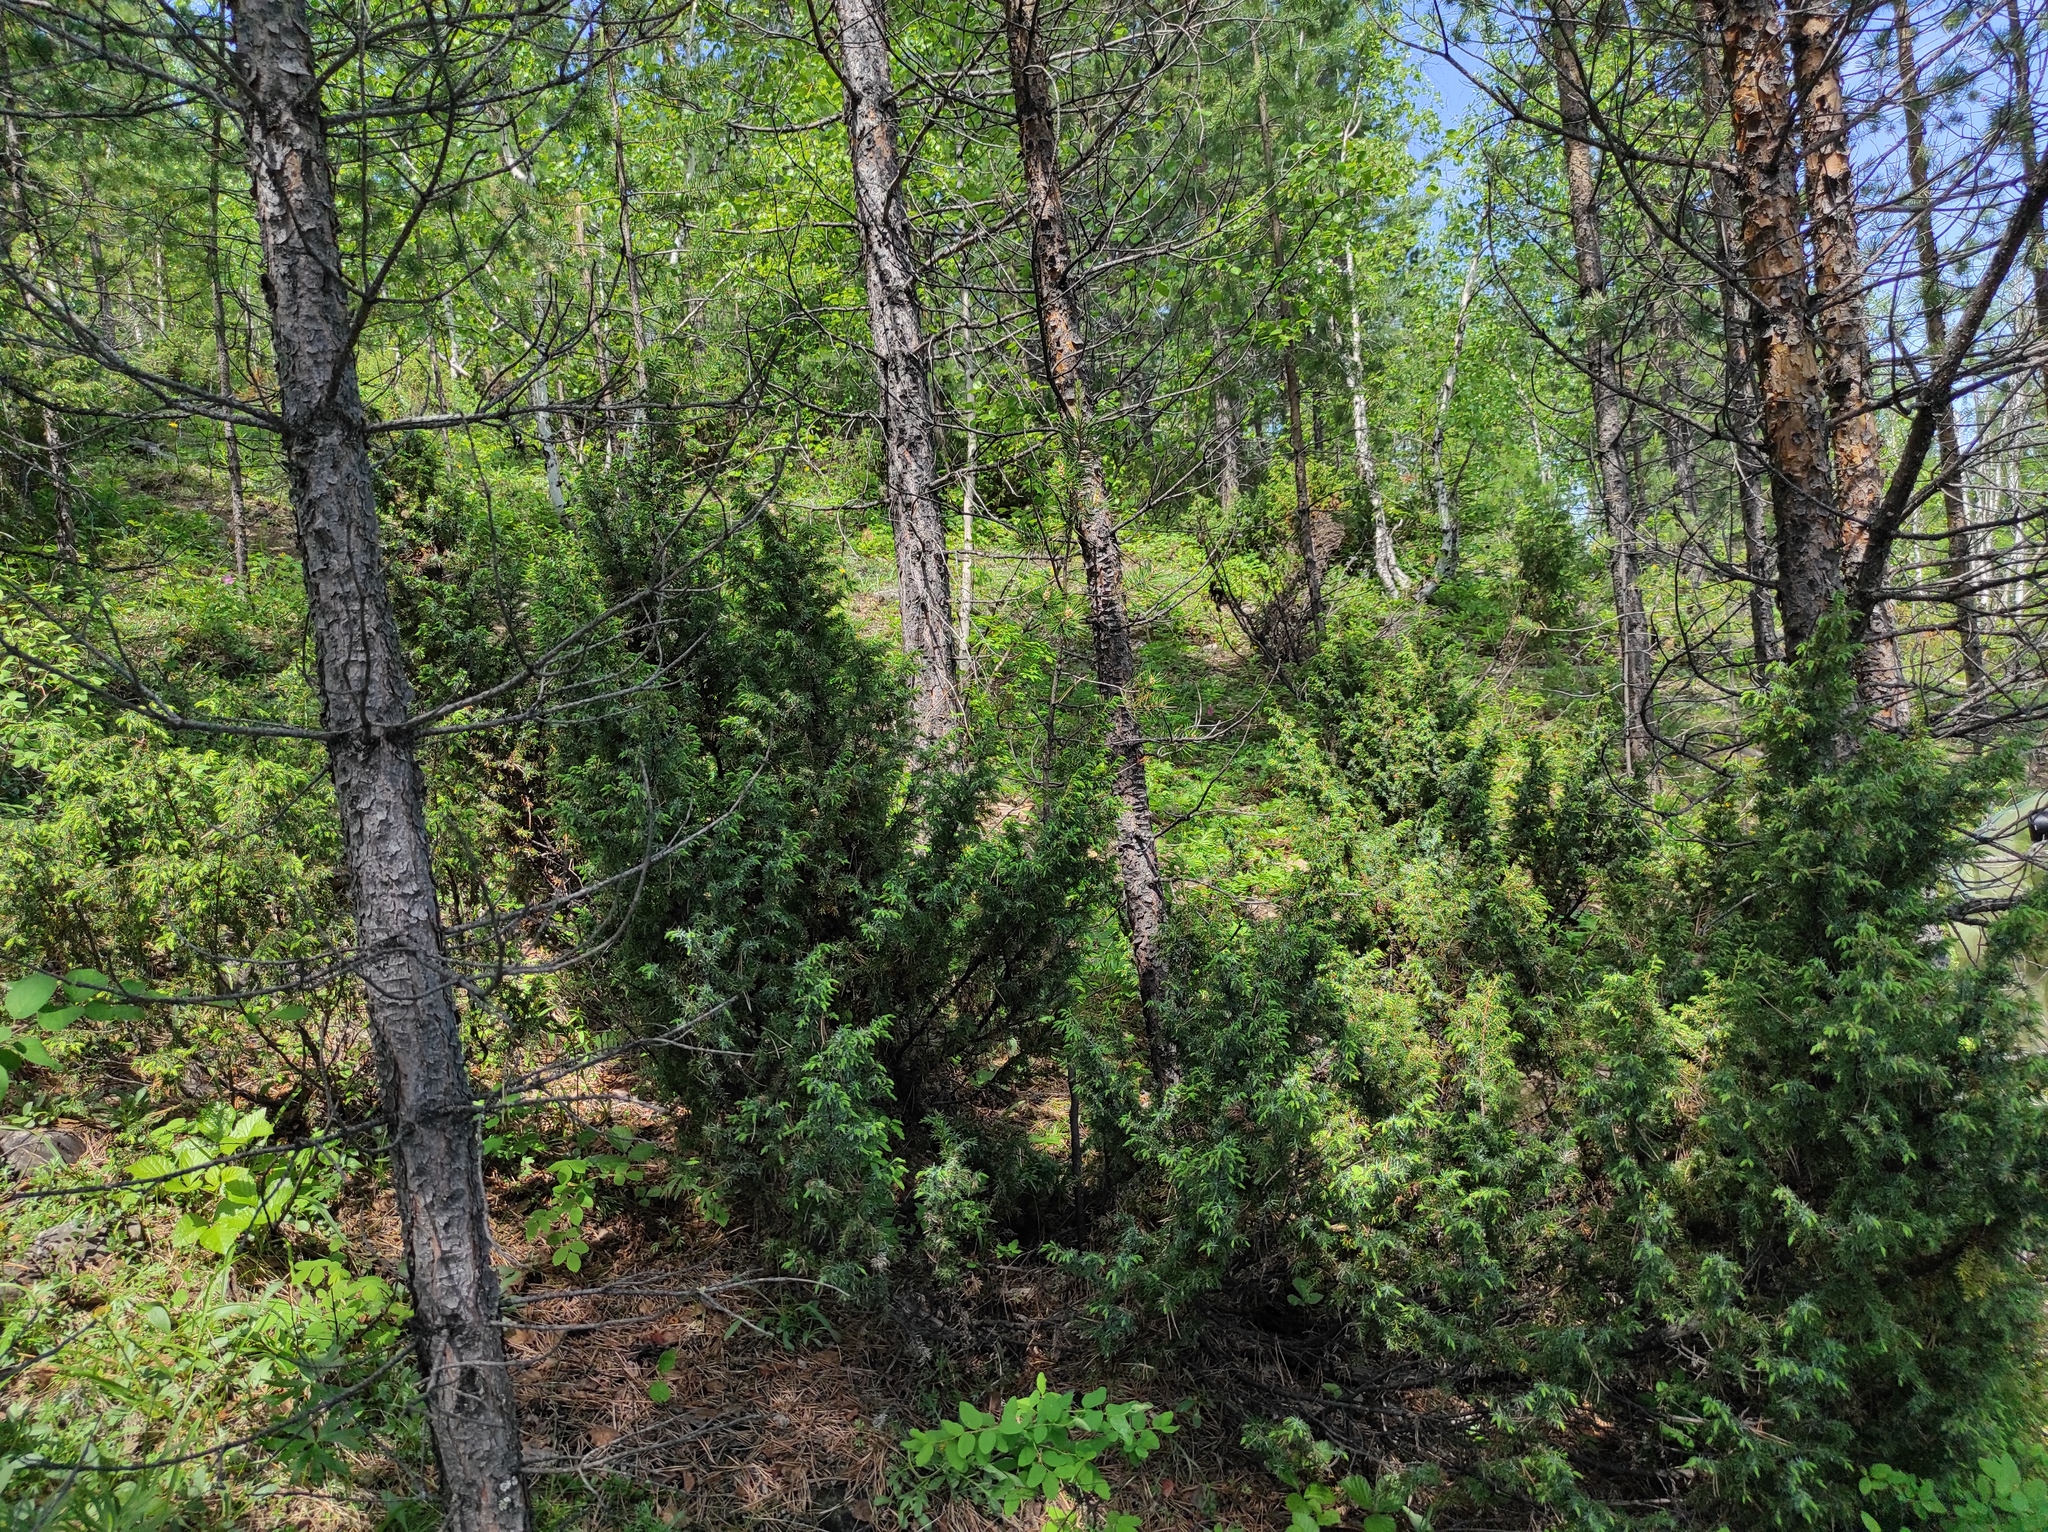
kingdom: Plantae
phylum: Tracheophyta
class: Pinopsida
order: Pinales
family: Pinaceae
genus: Pinus
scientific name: Pinus sylvestris
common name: Scots pine
